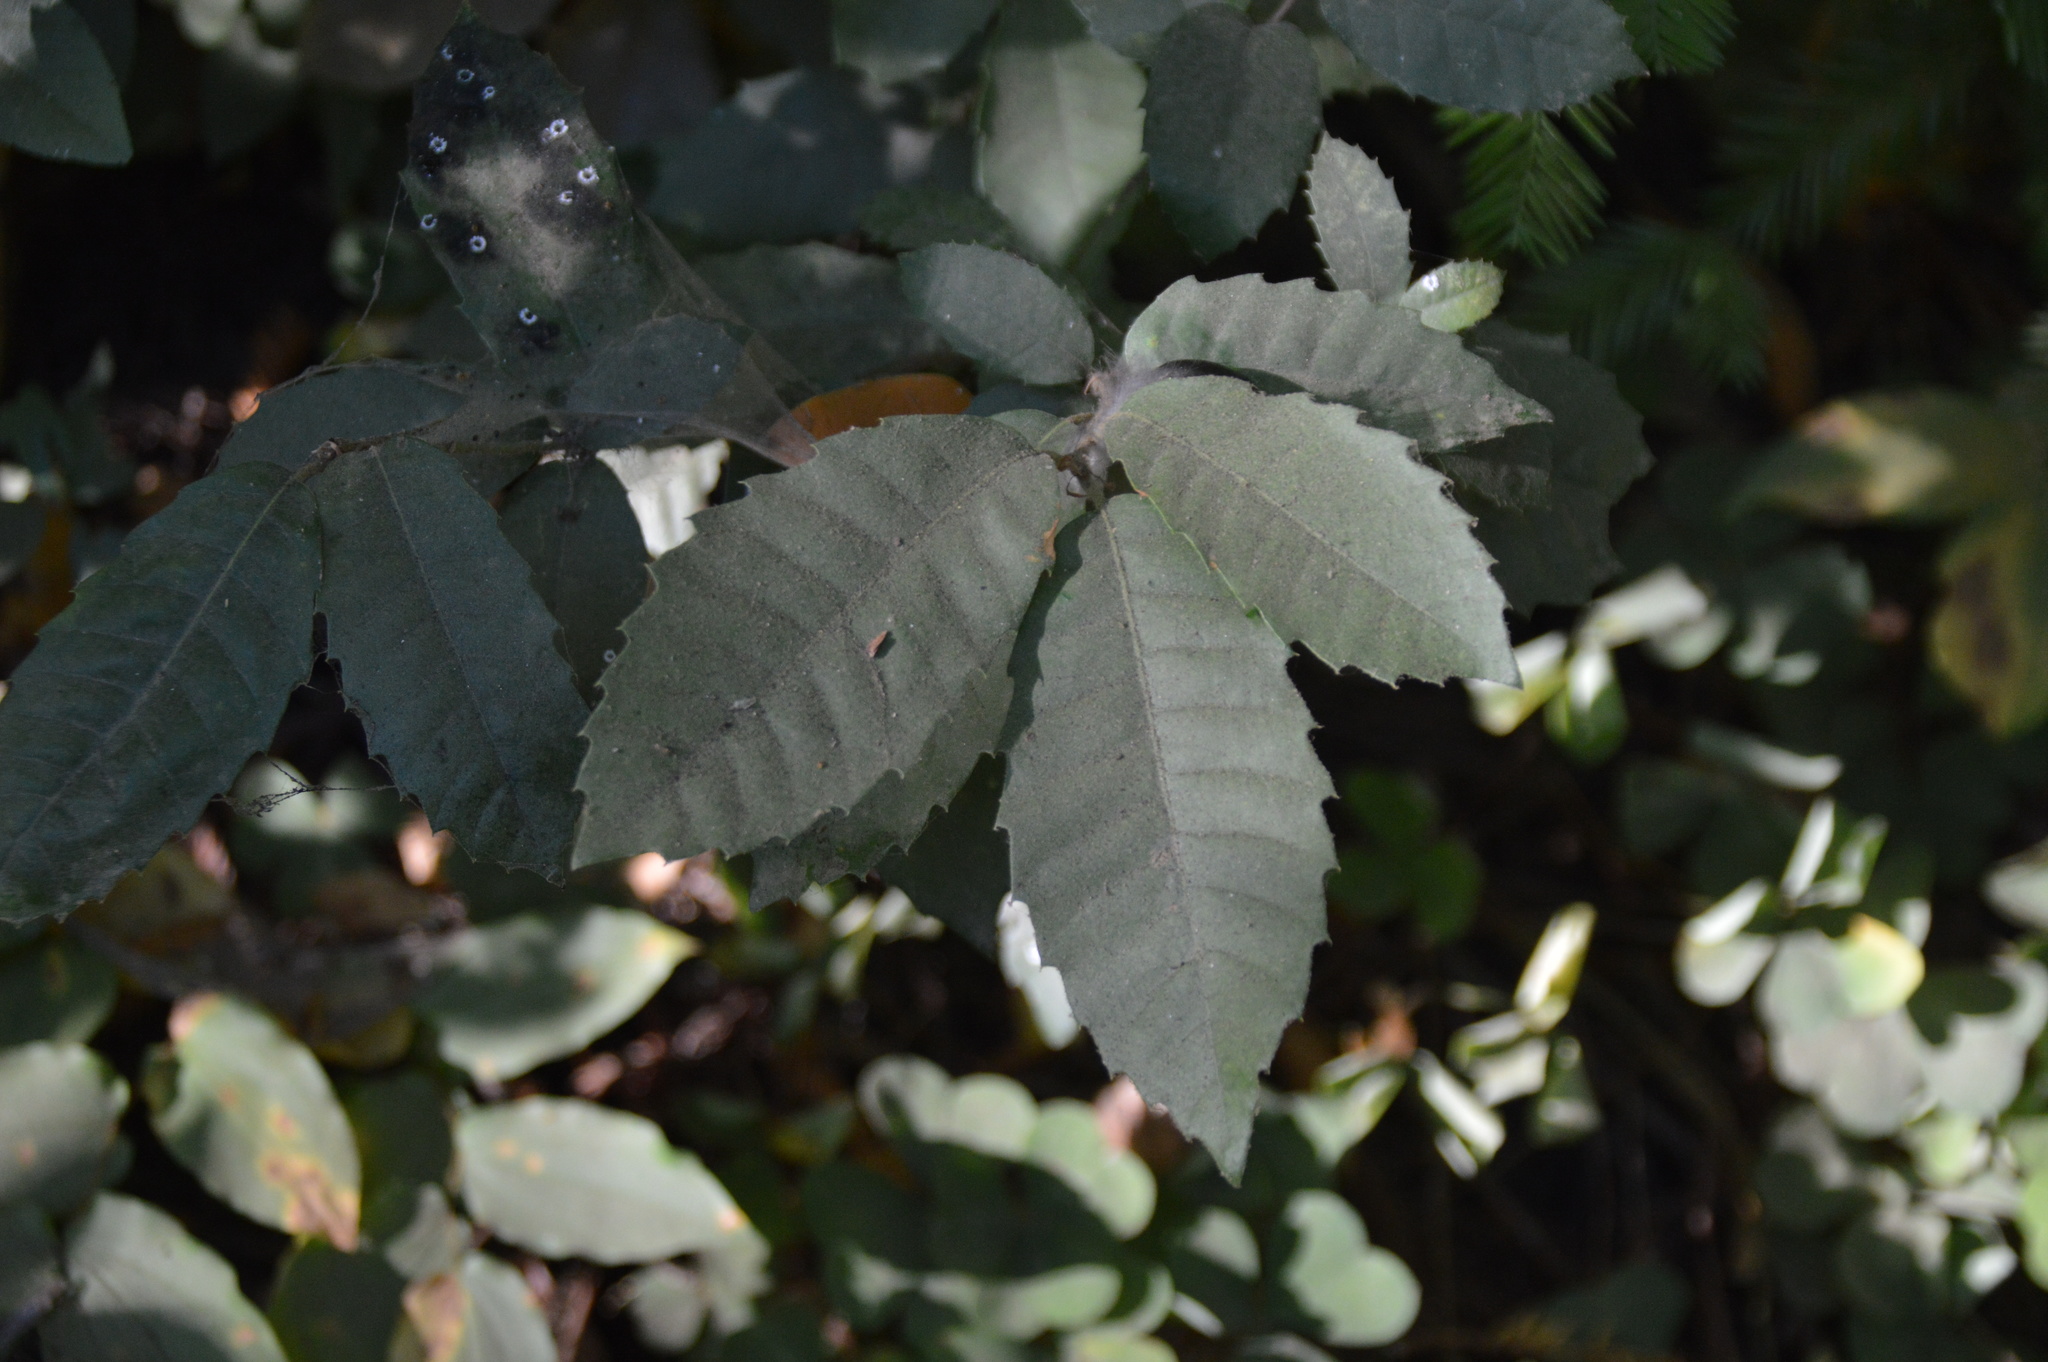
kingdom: Plantae
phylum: Tracheophyta
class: Magnoliopsida
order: Fagales
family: Fagaceae
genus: Notholithocarpus
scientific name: Notholithocarpus densiflorus
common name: Tan bark oak
